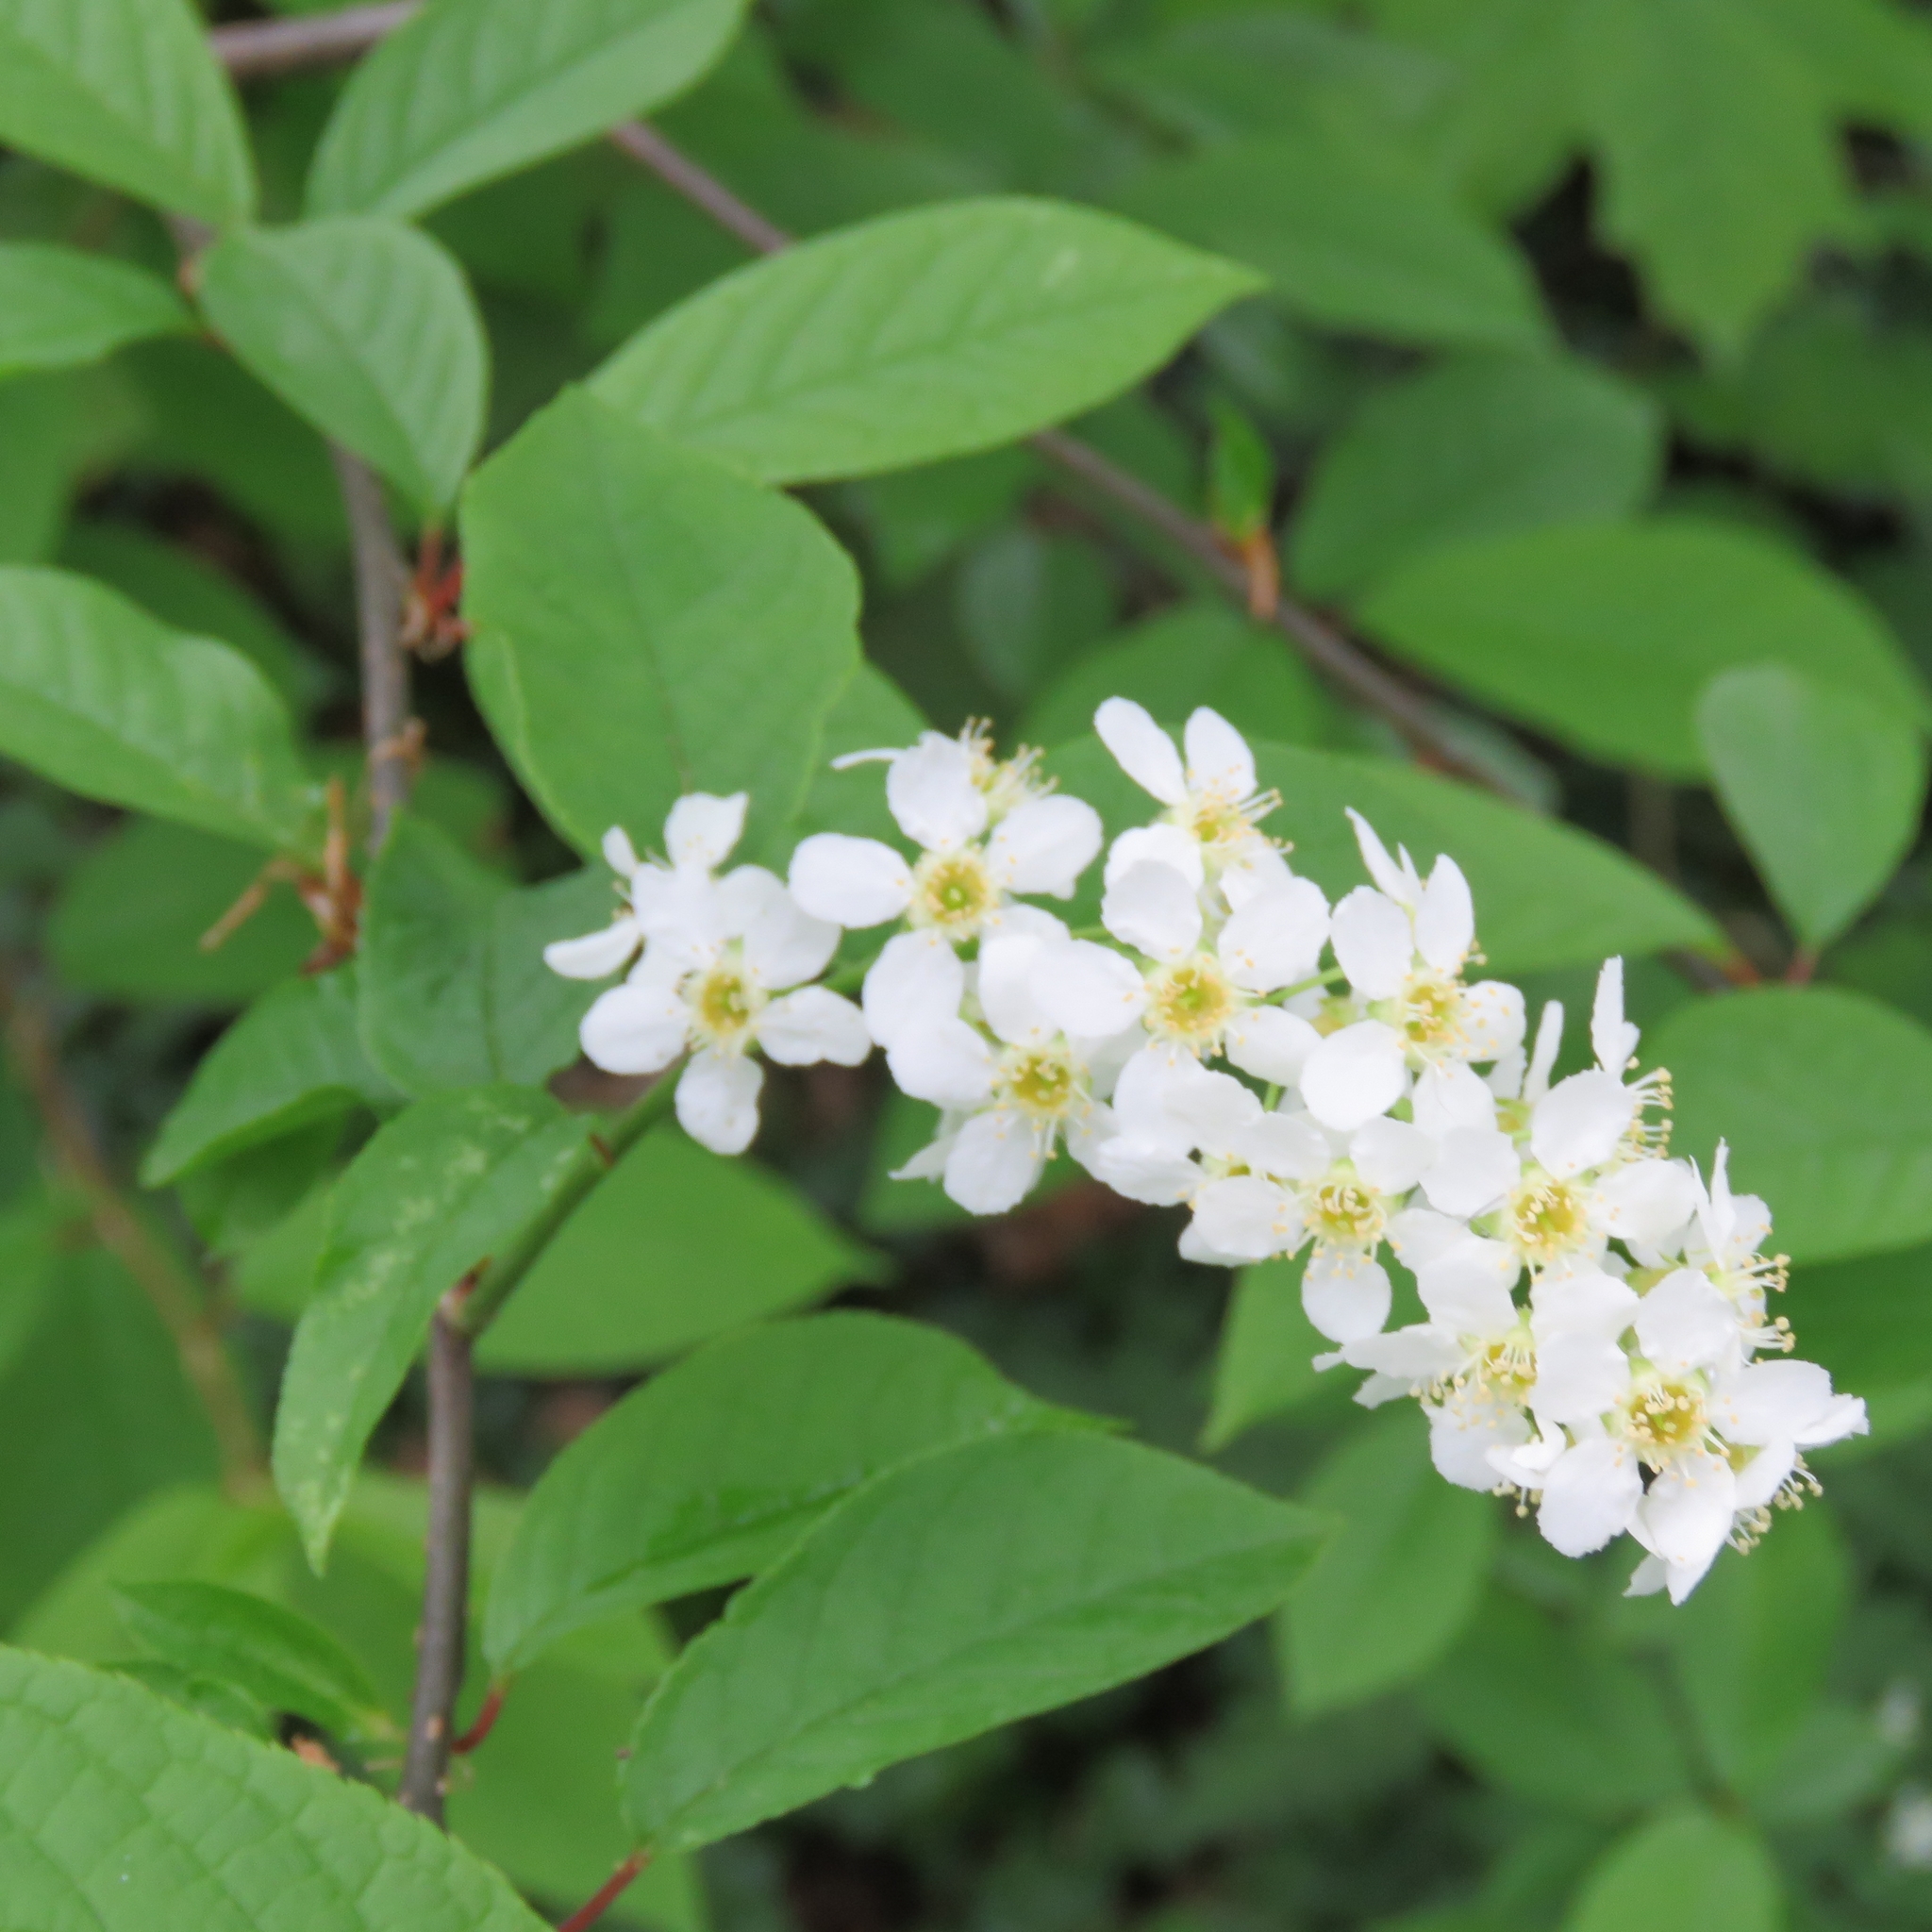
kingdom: Plantae
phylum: Tracheophyta
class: Magnoliopsida
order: Rosales
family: Rosaceae
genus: Prunus
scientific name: Prunus padus
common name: Bird cherry
